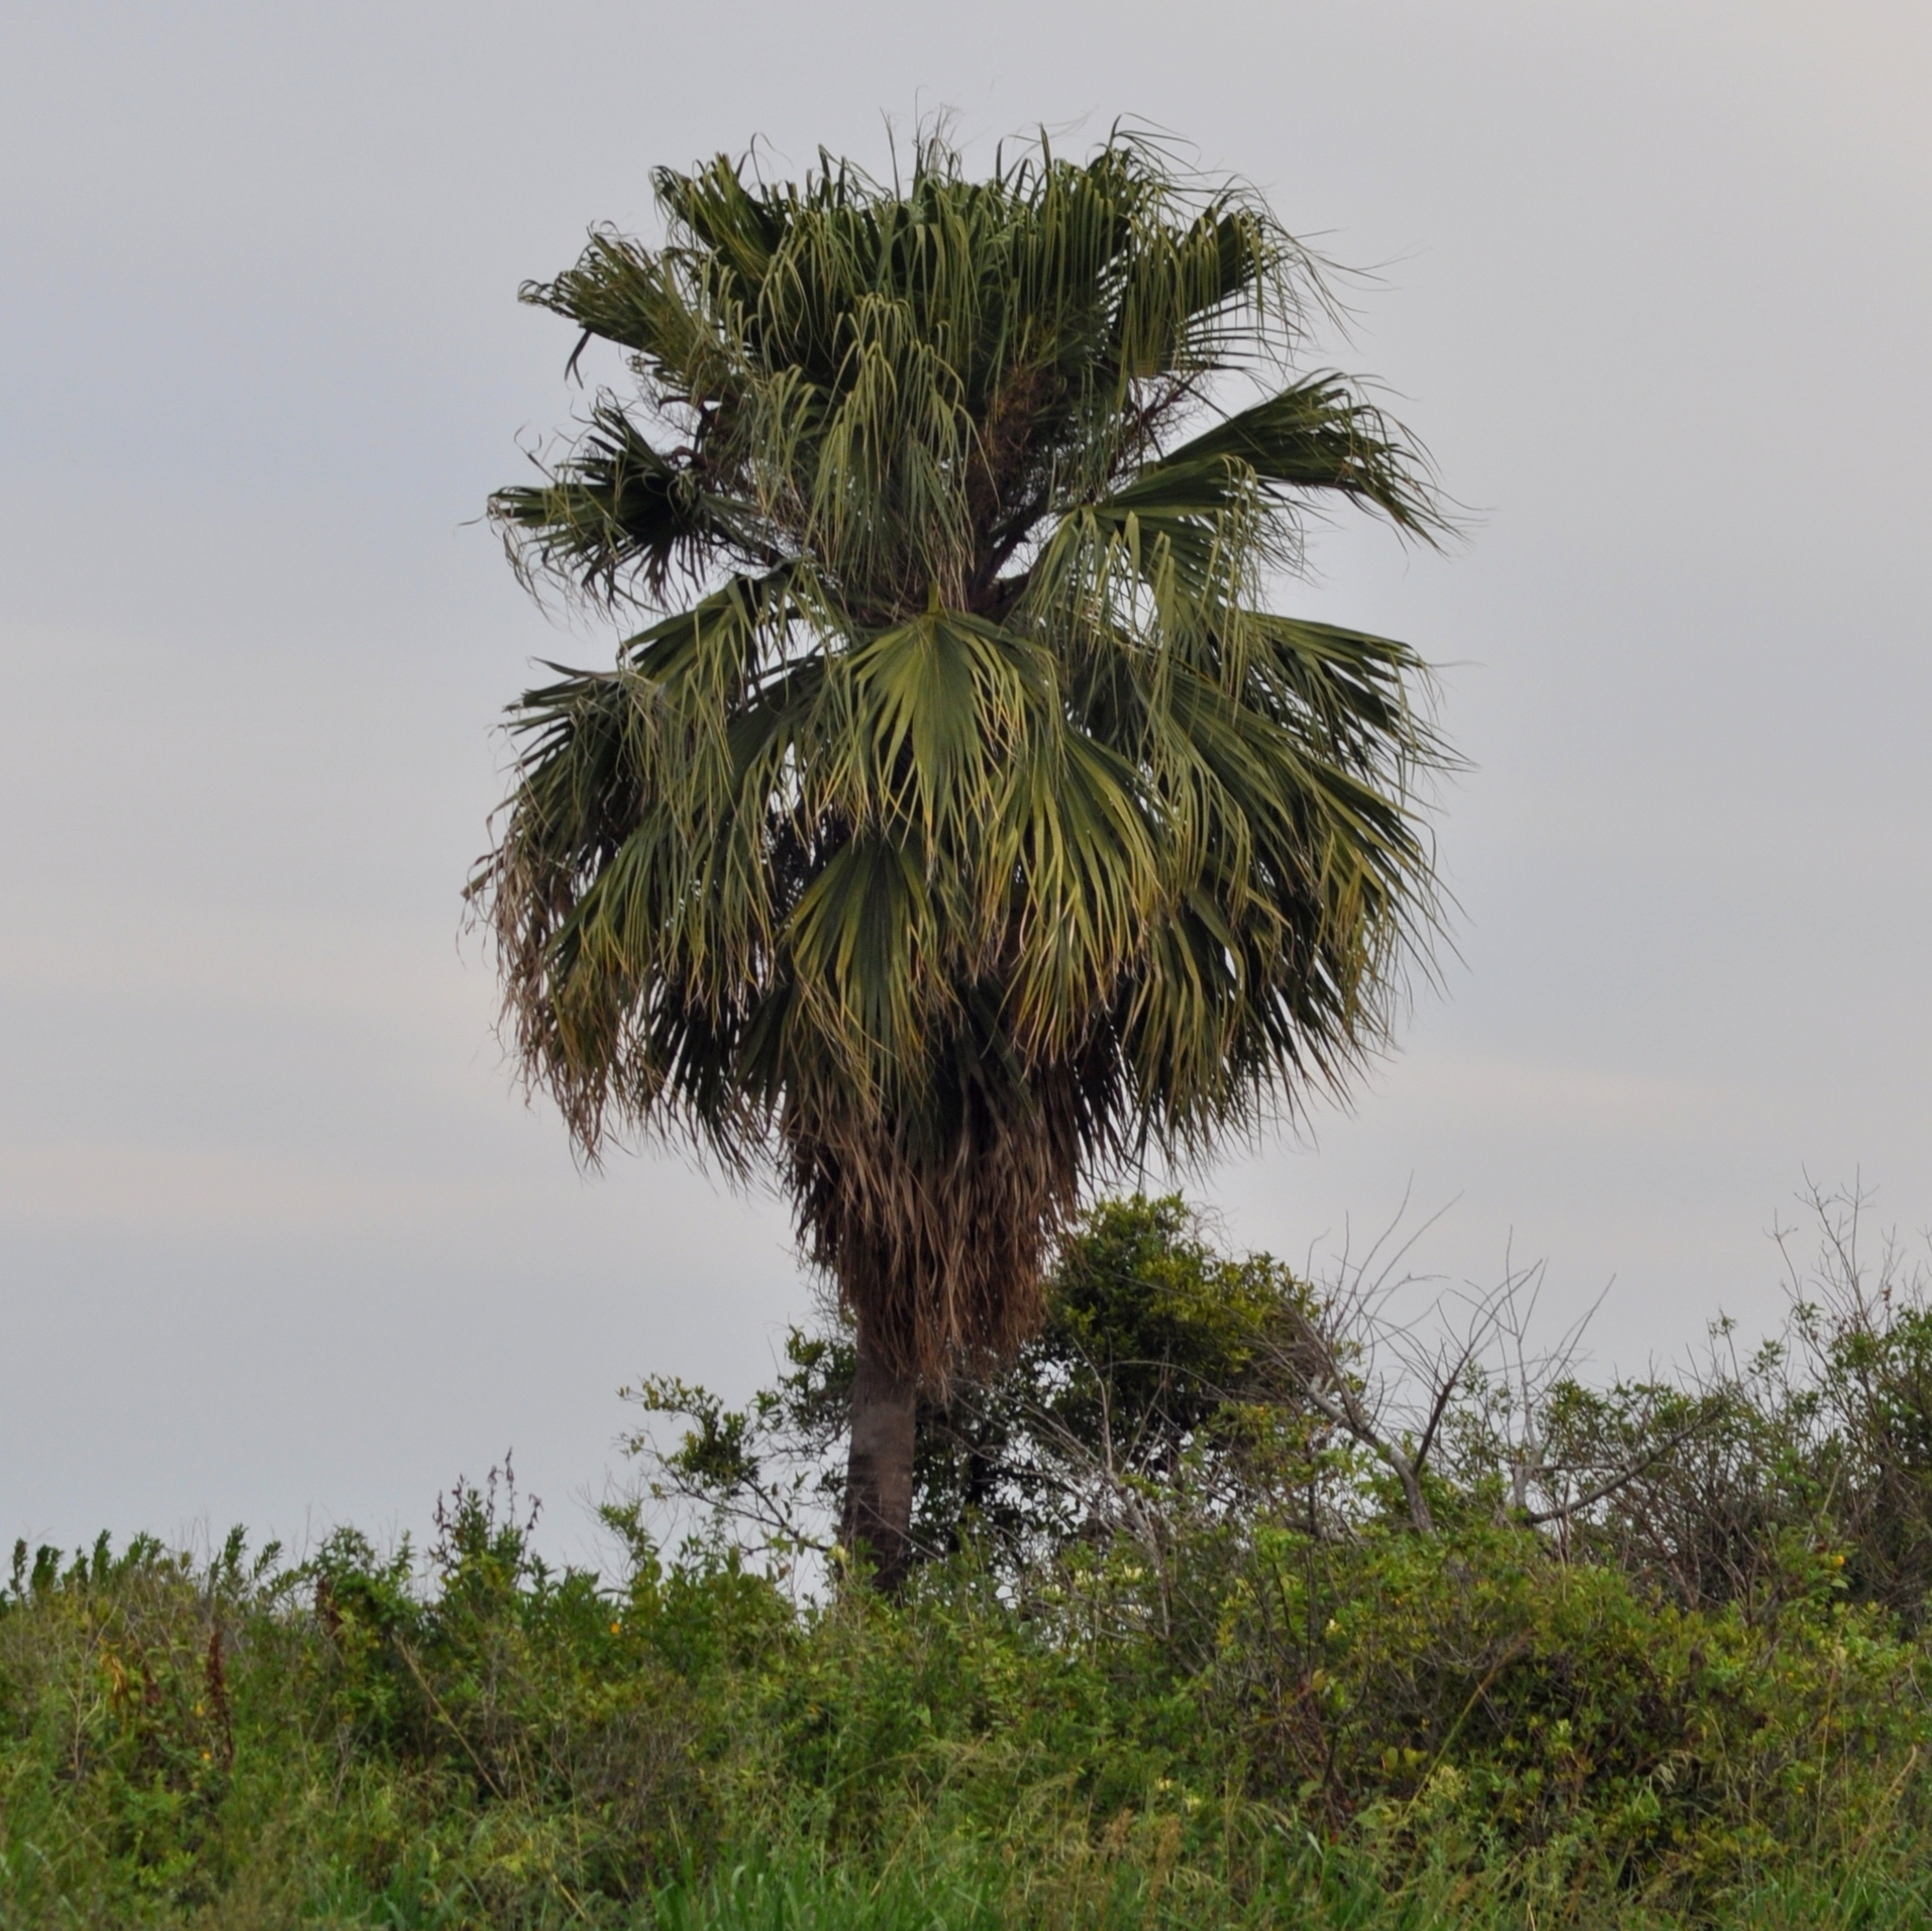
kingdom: Plantae
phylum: Tracheophyta
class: Liliopsida
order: Arecales
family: Arecaceae
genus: Washingtonia
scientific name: Washingtonia robusta
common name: Mexican fan palm
